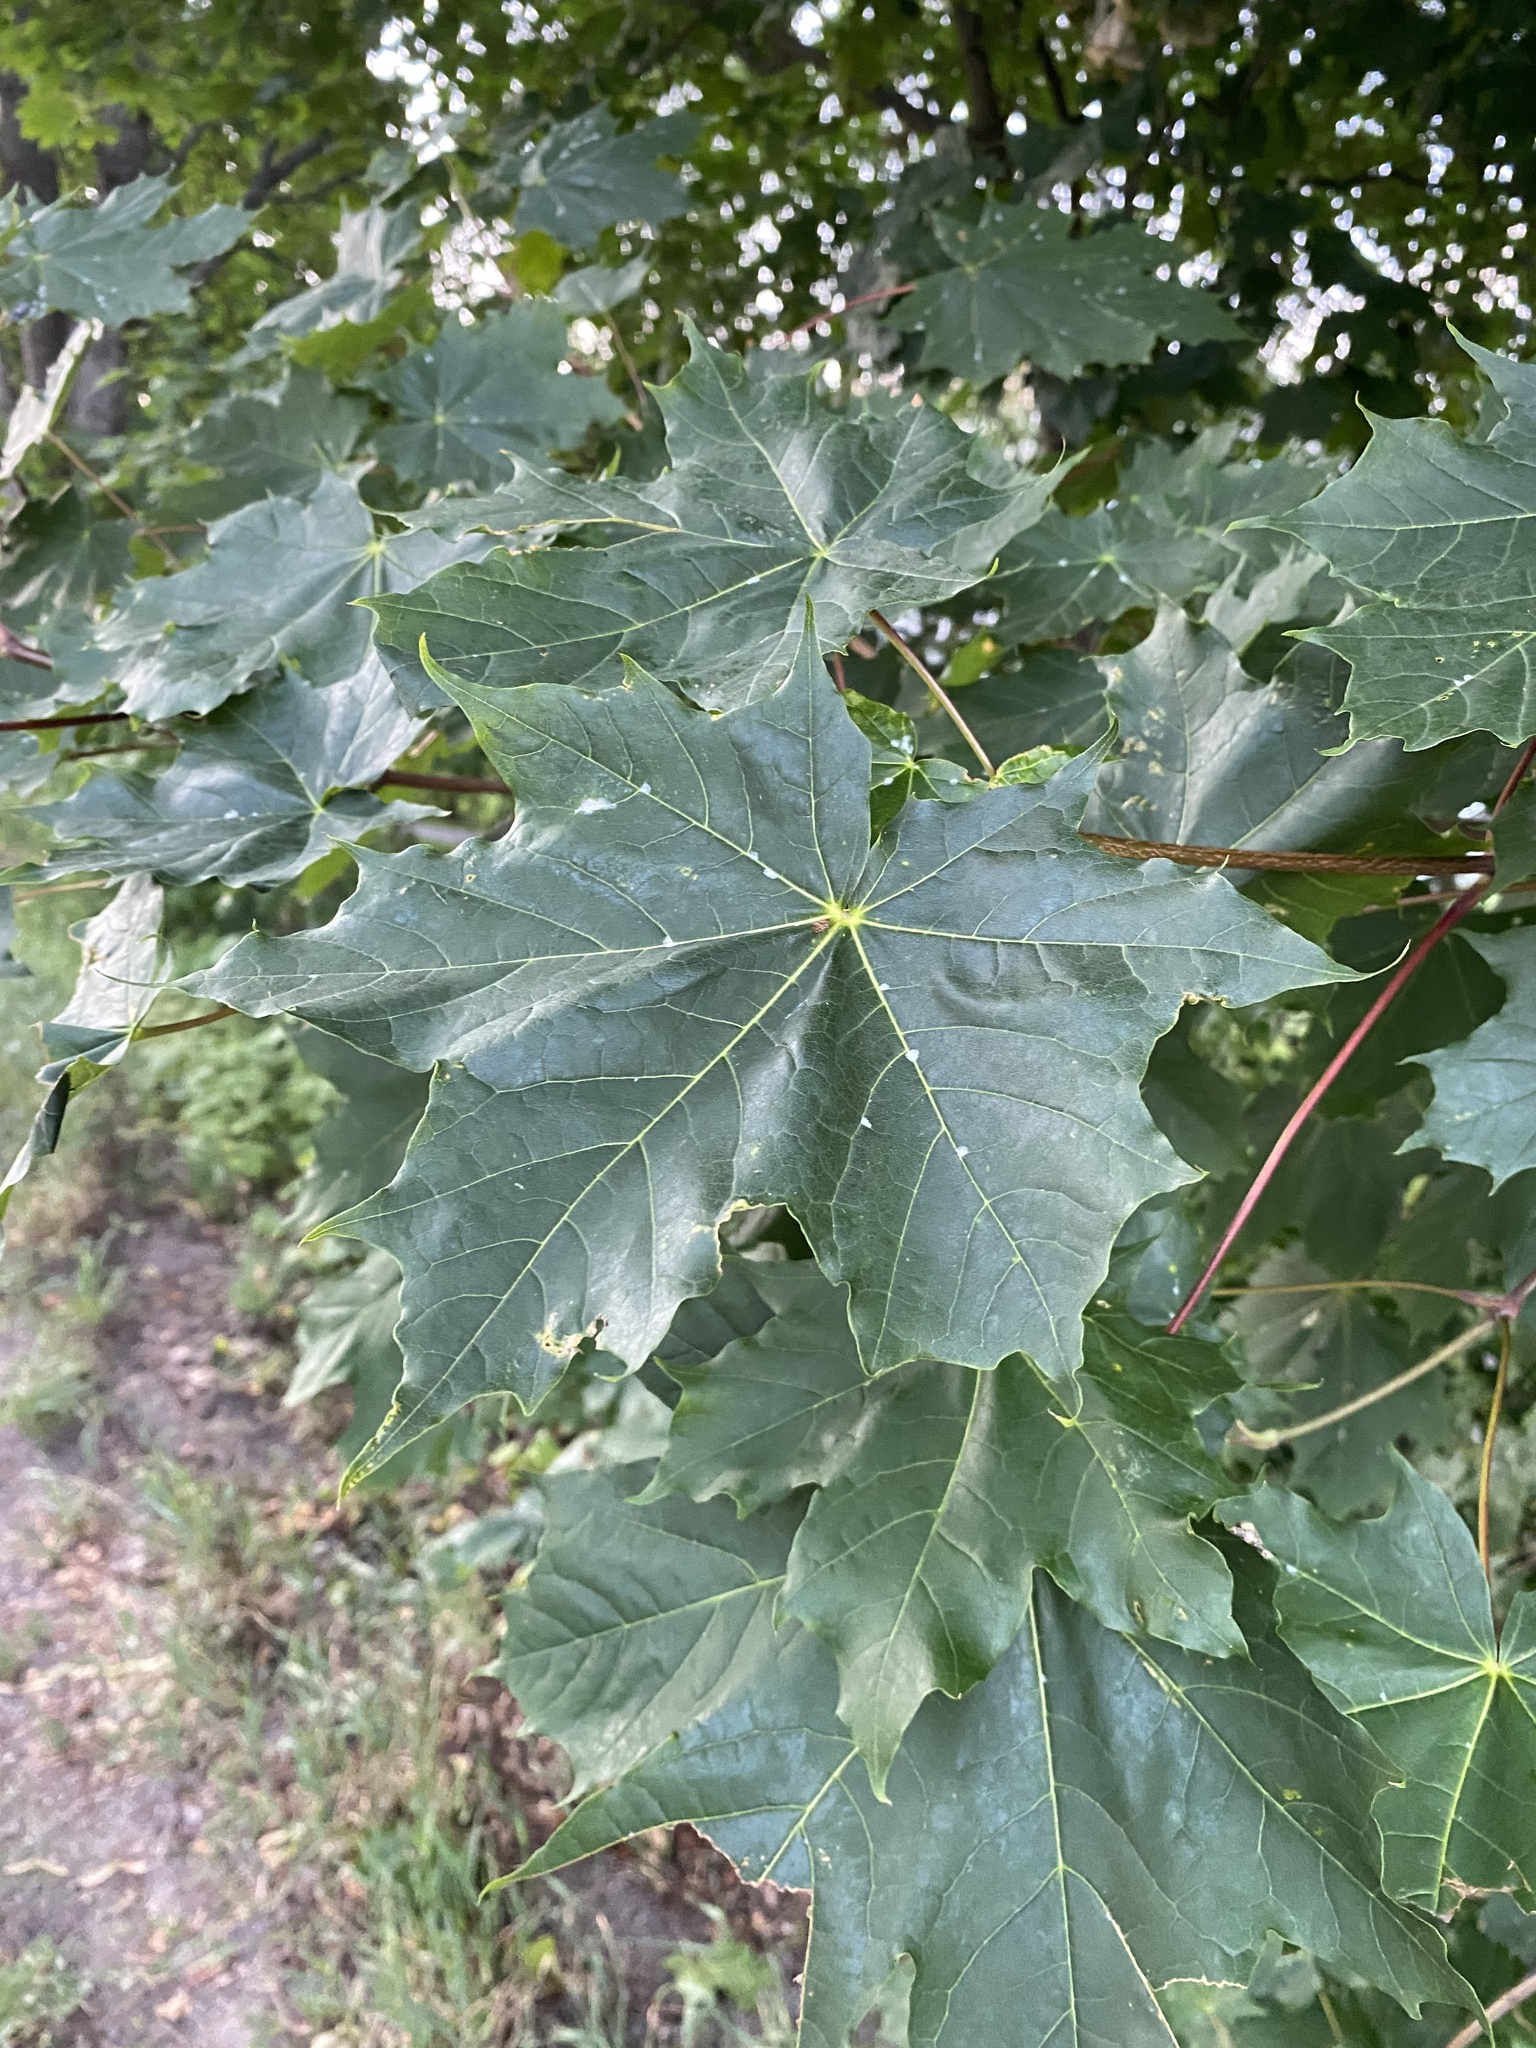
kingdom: Plantae
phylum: Tracheophyta
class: Magnoliopsida
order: Sapindales
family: Sapindaceae
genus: Acer
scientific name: Acer platanoides
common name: Norway maple
